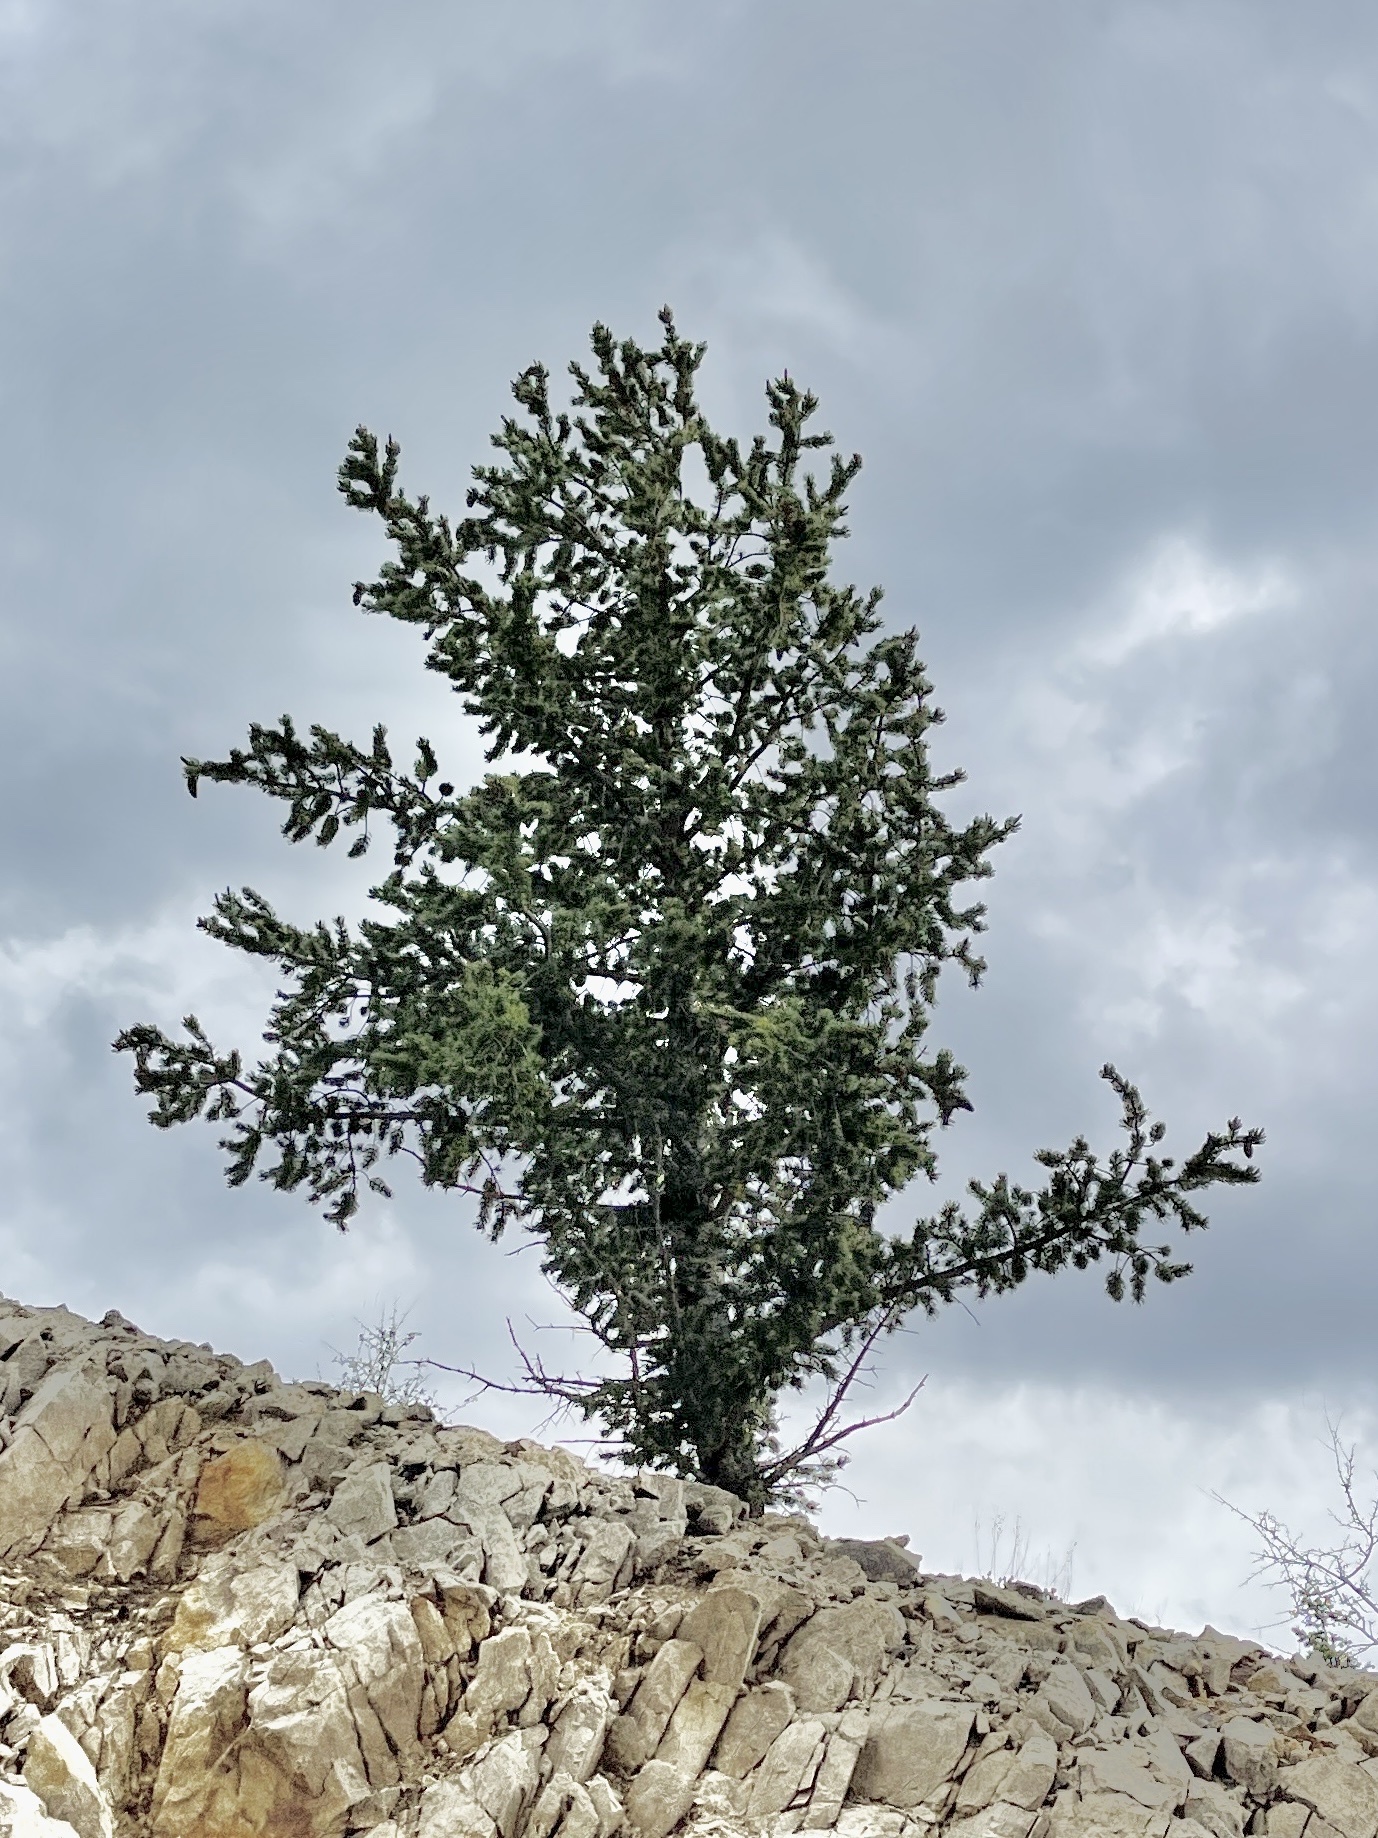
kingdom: Plantae
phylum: Tracheophyta
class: Pinopsida
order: Pinales
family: Pinaceae
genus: Pinus
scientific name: Pinus flexilis
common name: Limber pine
